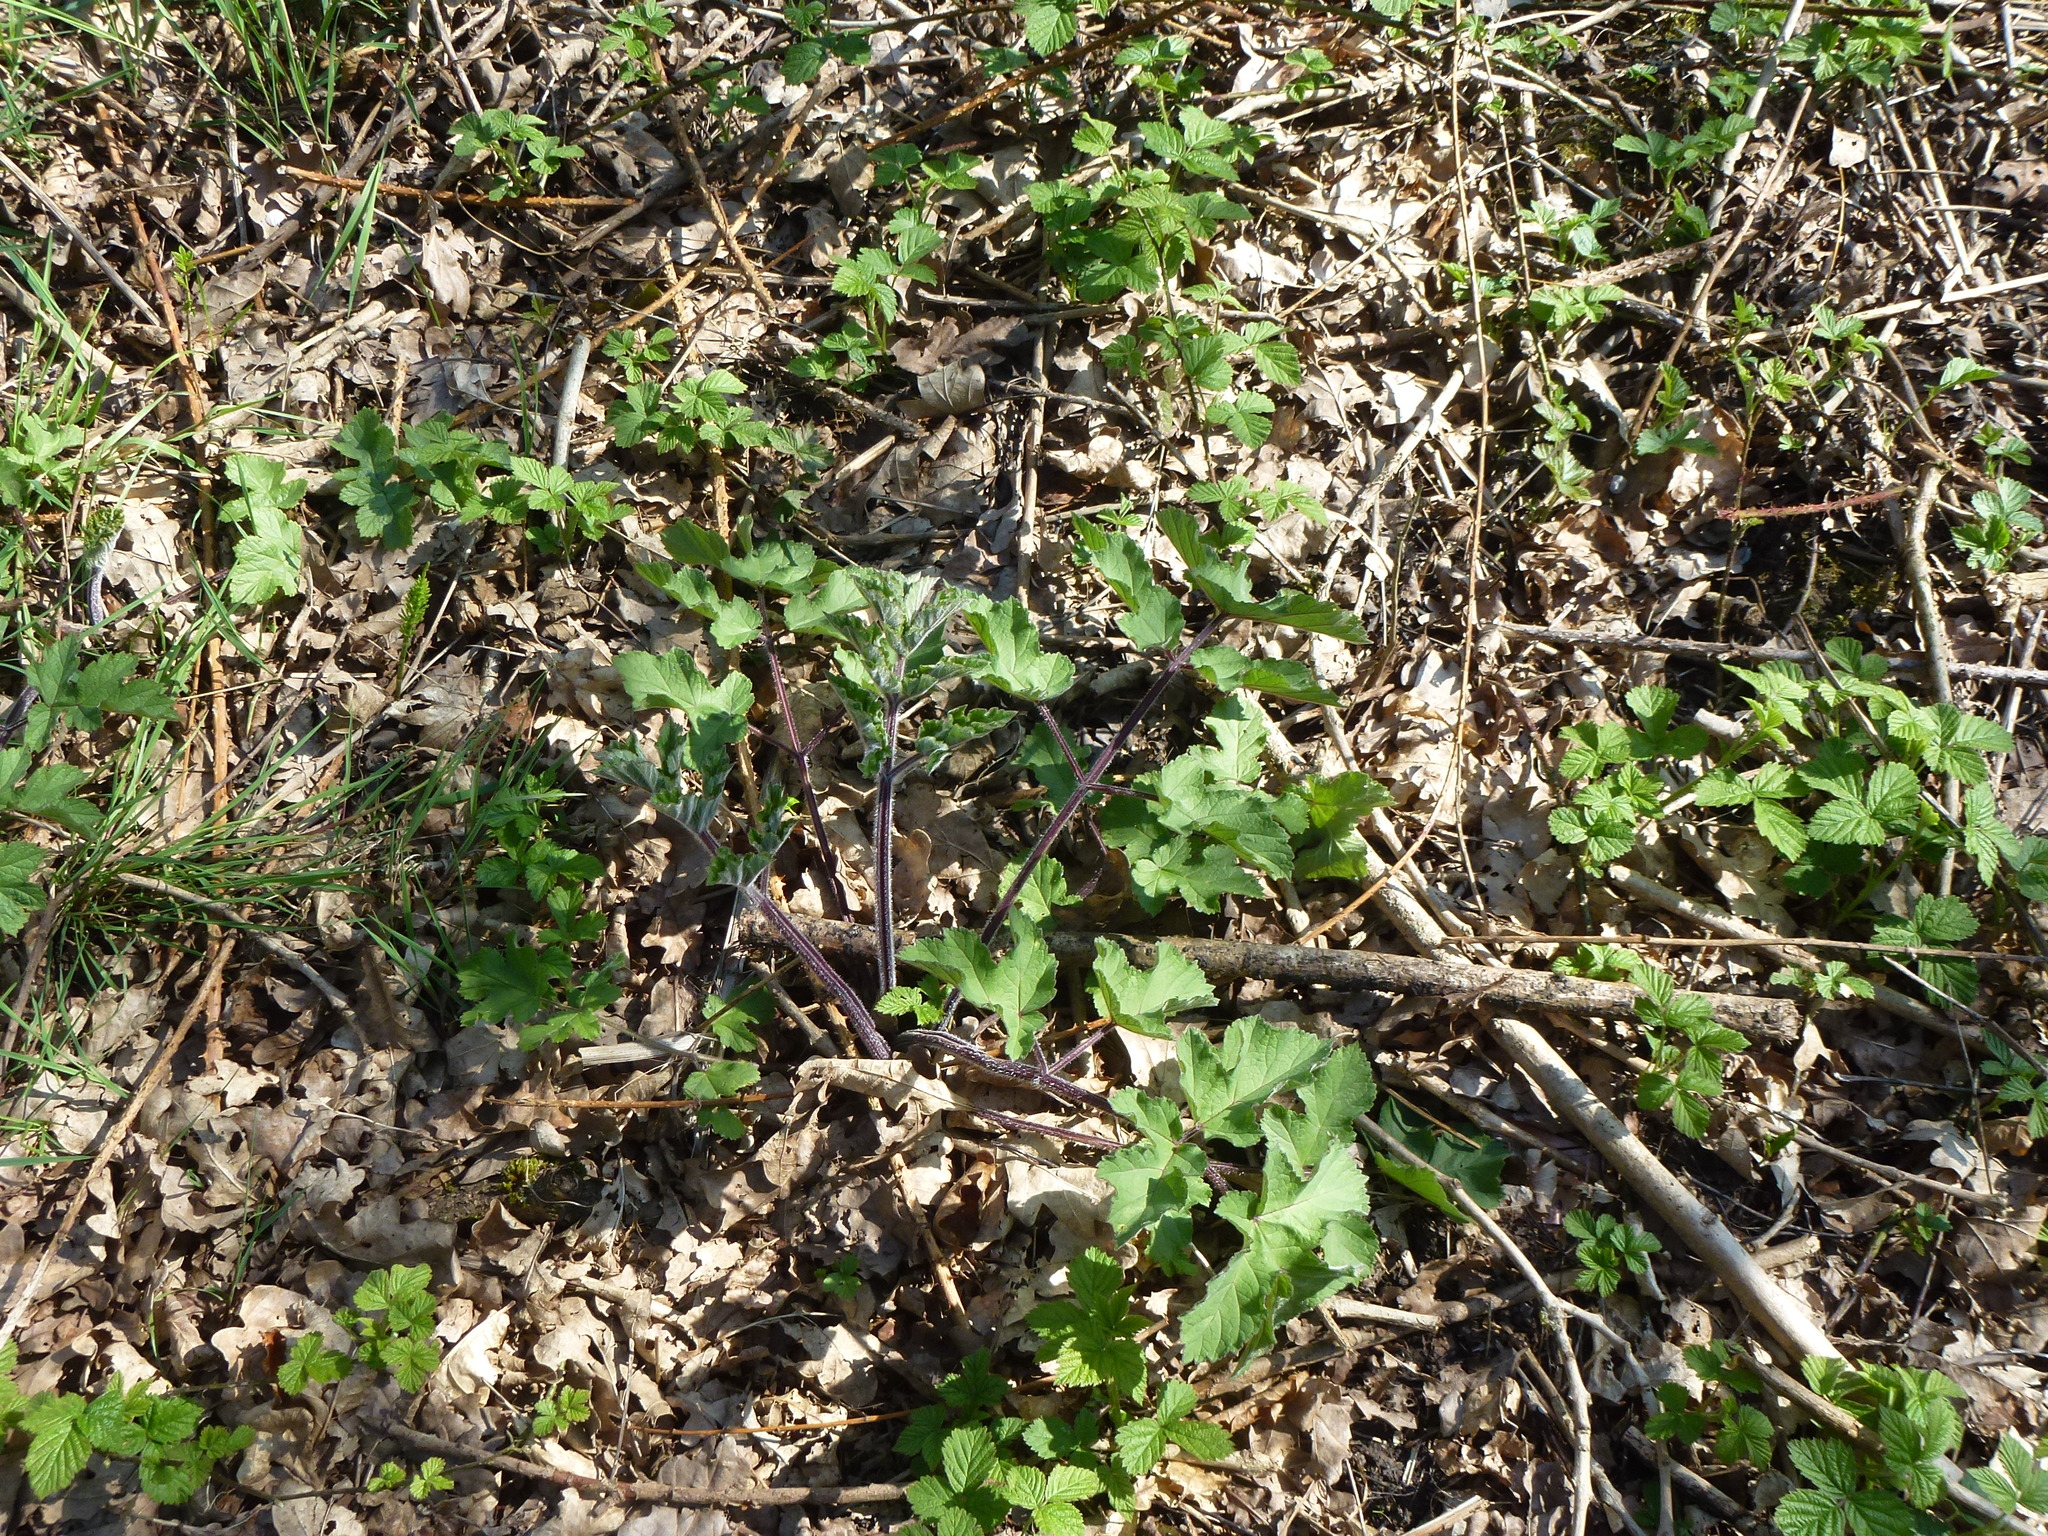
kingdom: Plantae
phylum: Tracheophyta
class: Magnoliopsida
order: Apiales
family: Apiaceae
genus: Heracleum
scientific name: Heracleum sphondylium
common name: Hogweed
